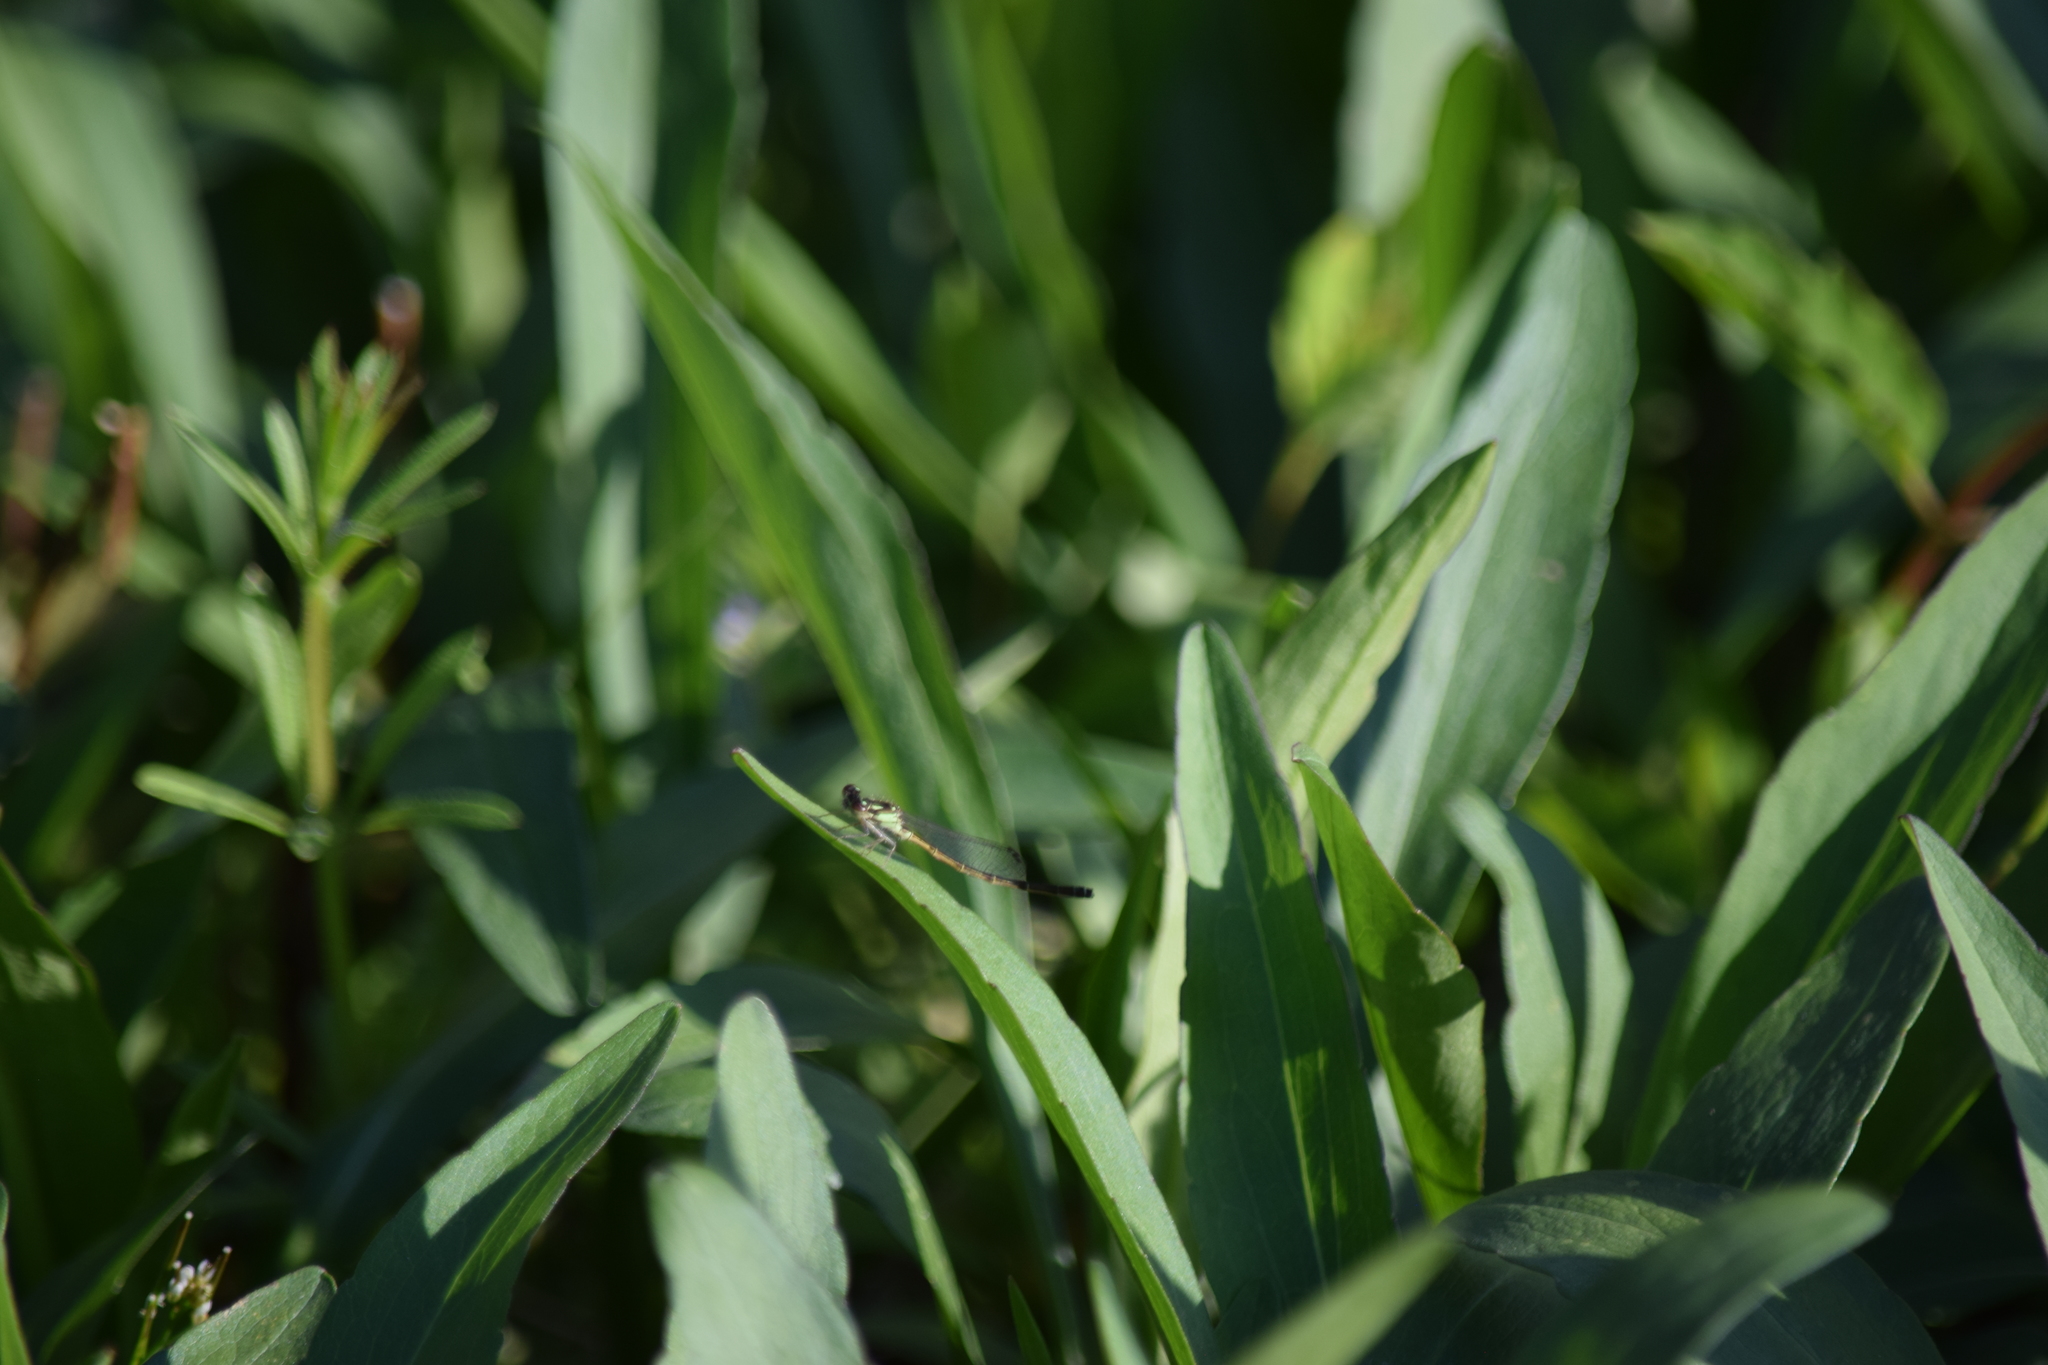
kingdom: Animalia
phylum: Arthropoda
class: Insecta
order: Odonata
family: Coenagrionidae
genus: Ischnura
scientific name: Ischnura posita
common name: Fragile forktail
